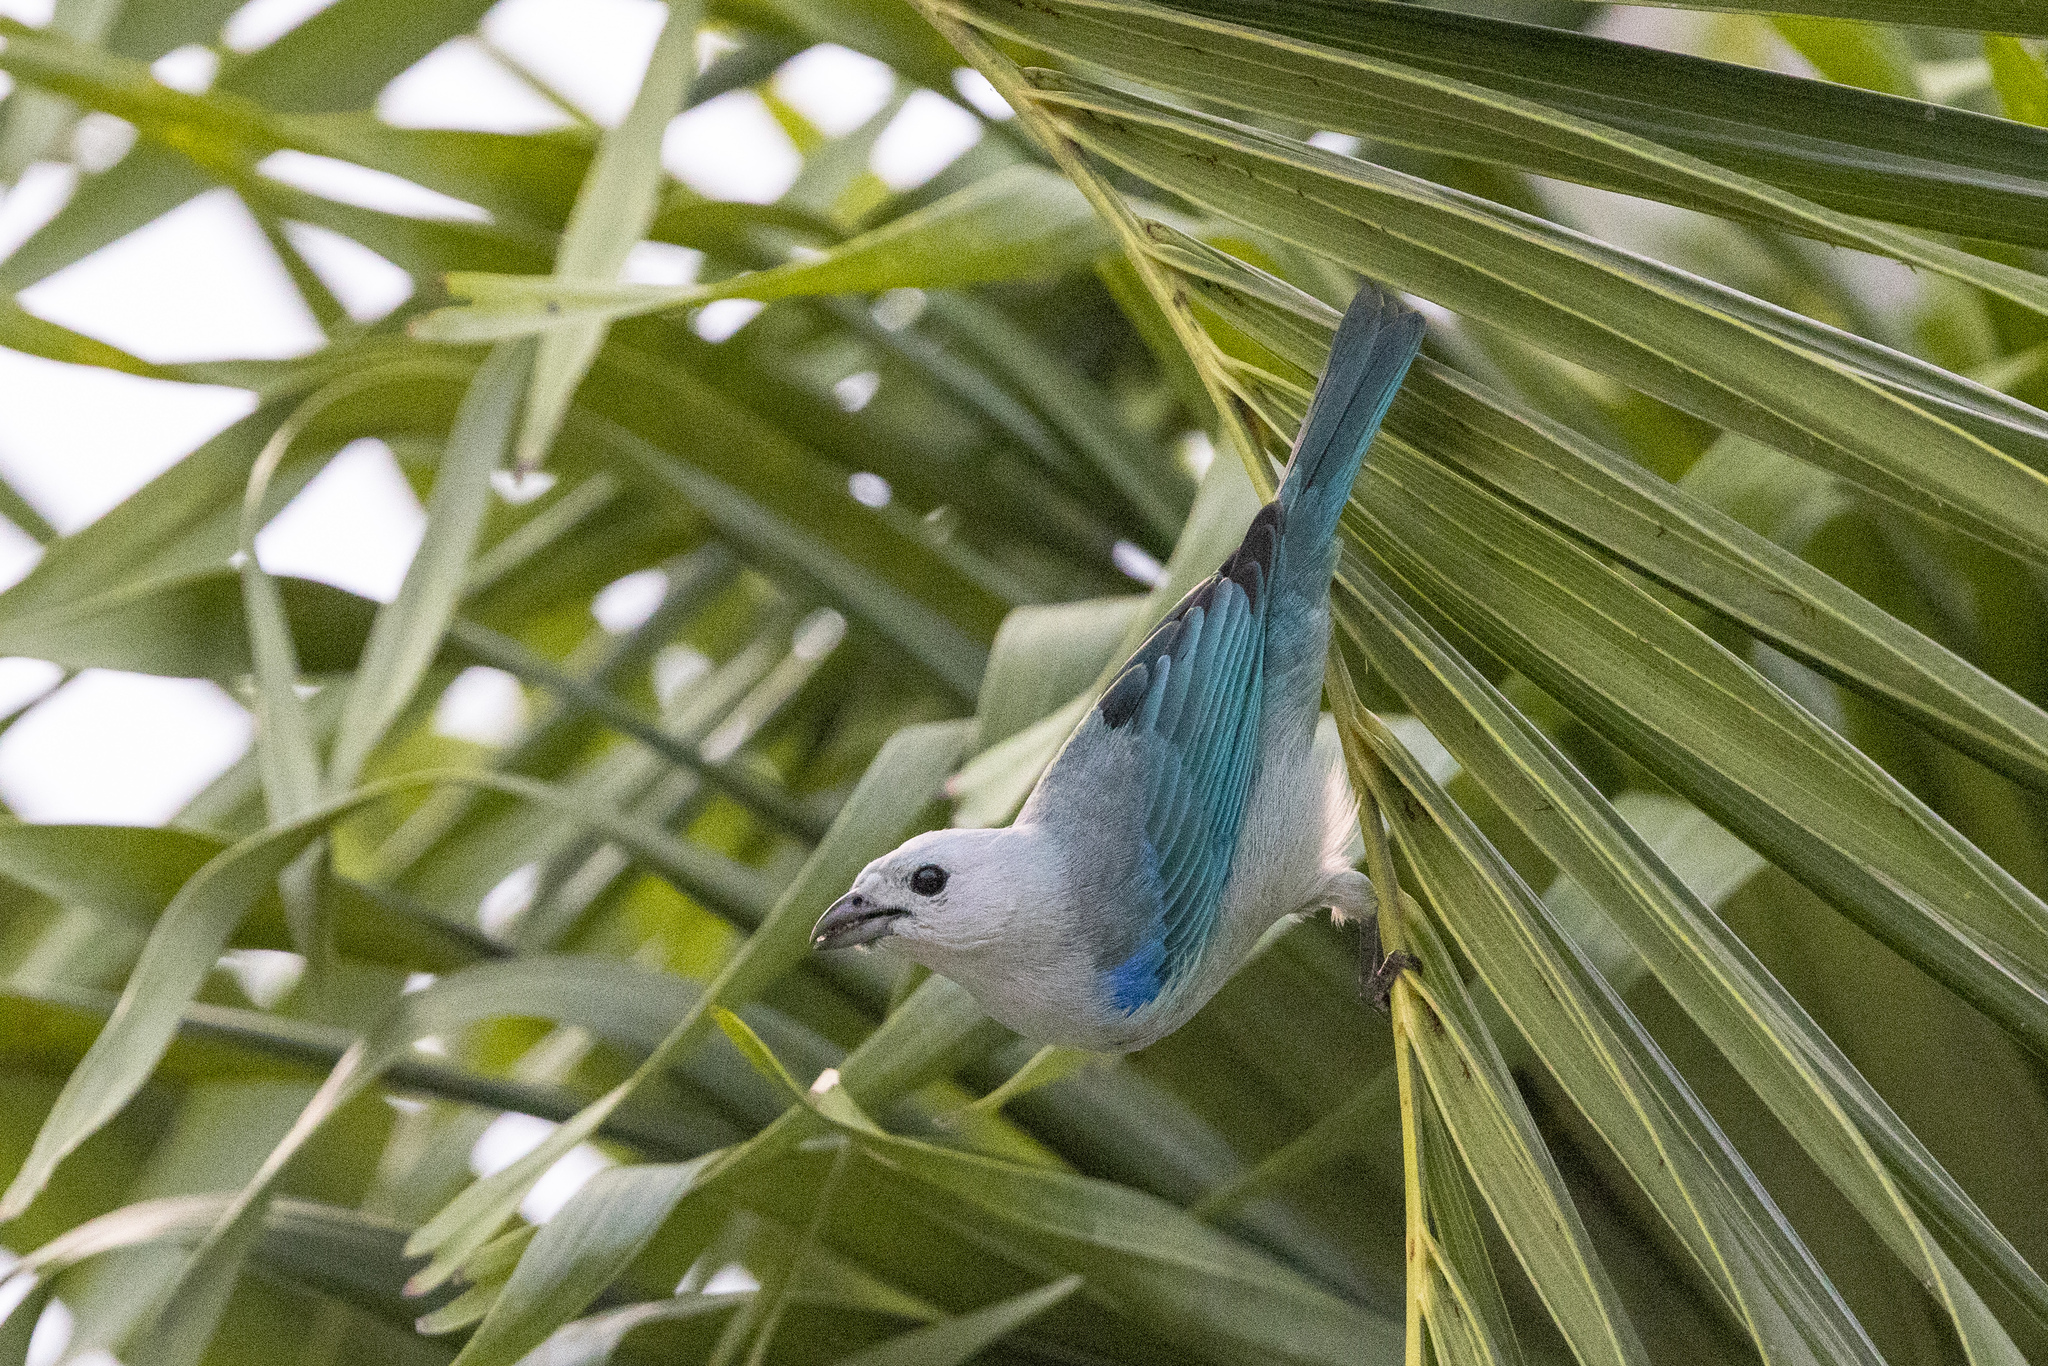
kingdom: Animalia
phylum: Chordata
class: Aves
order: Passeriformes
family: Thraupidae
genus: Thraupis
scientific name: Thraupis episcopus
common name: Blue-grey tanager
